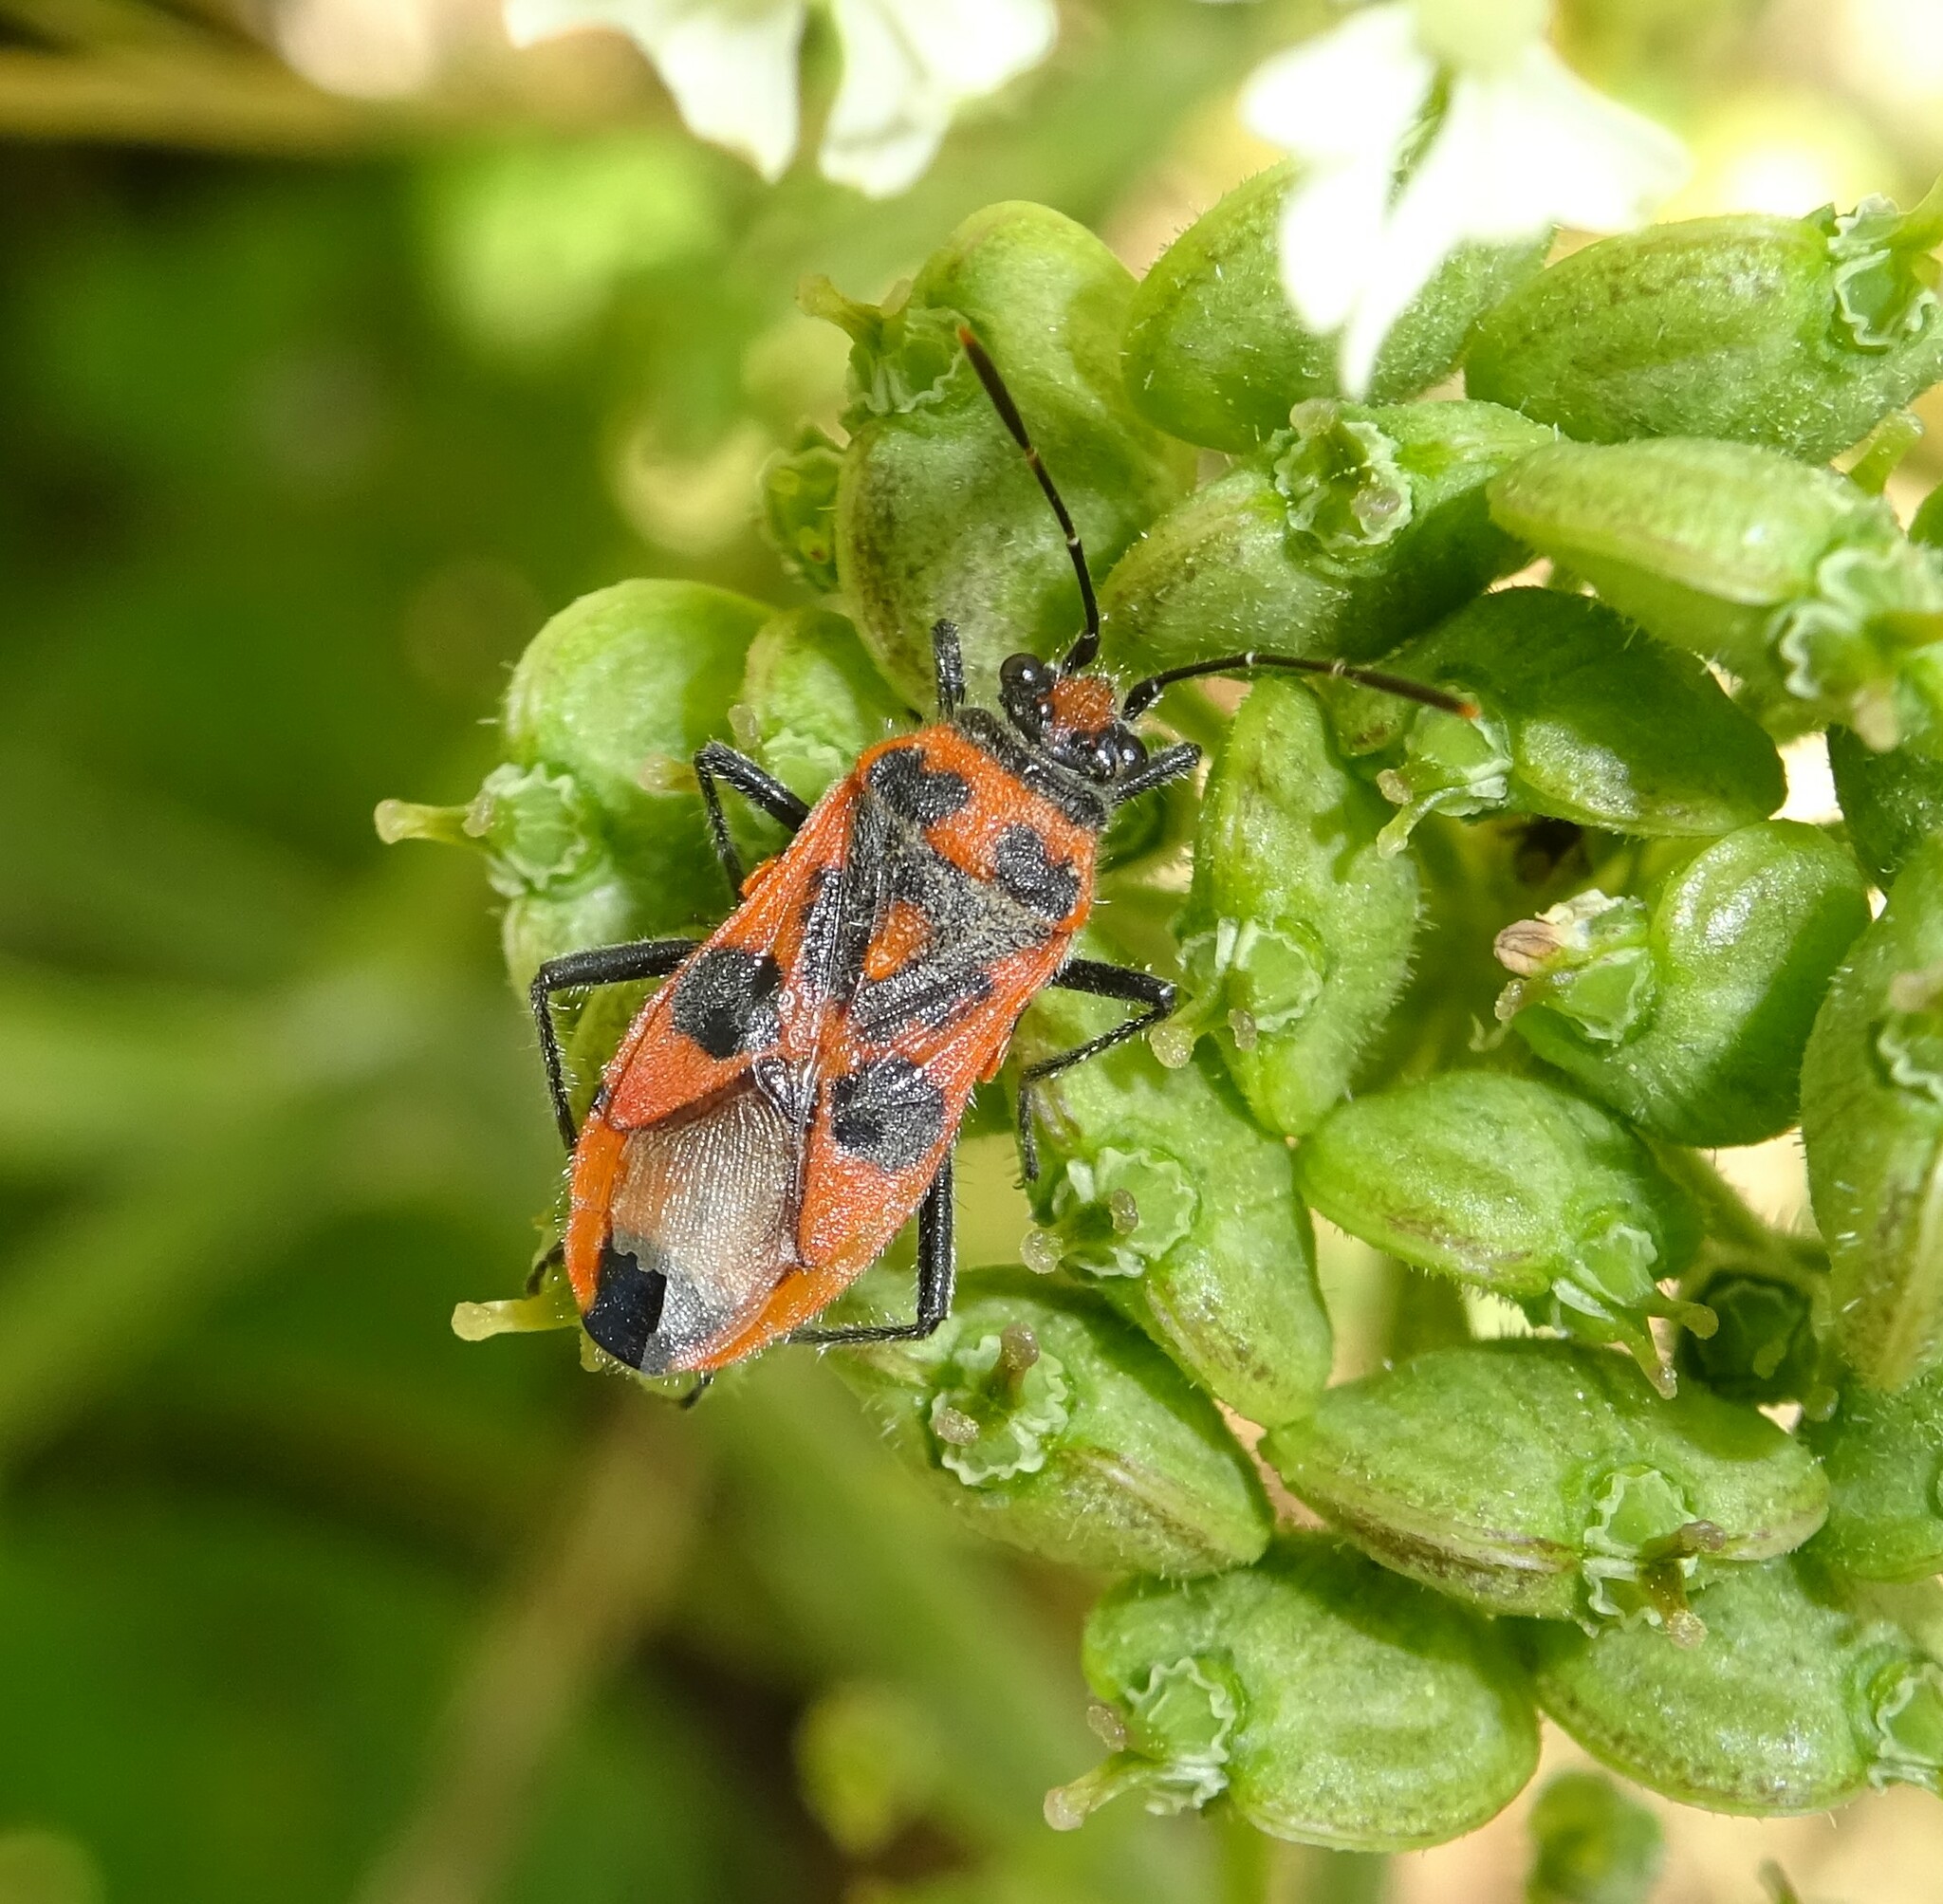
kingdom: Animalia
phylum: Arthropoda
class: Insecta
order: Hemiptera
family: Rhopalidae
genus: Corizus
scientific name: Corizus hyoscyami
